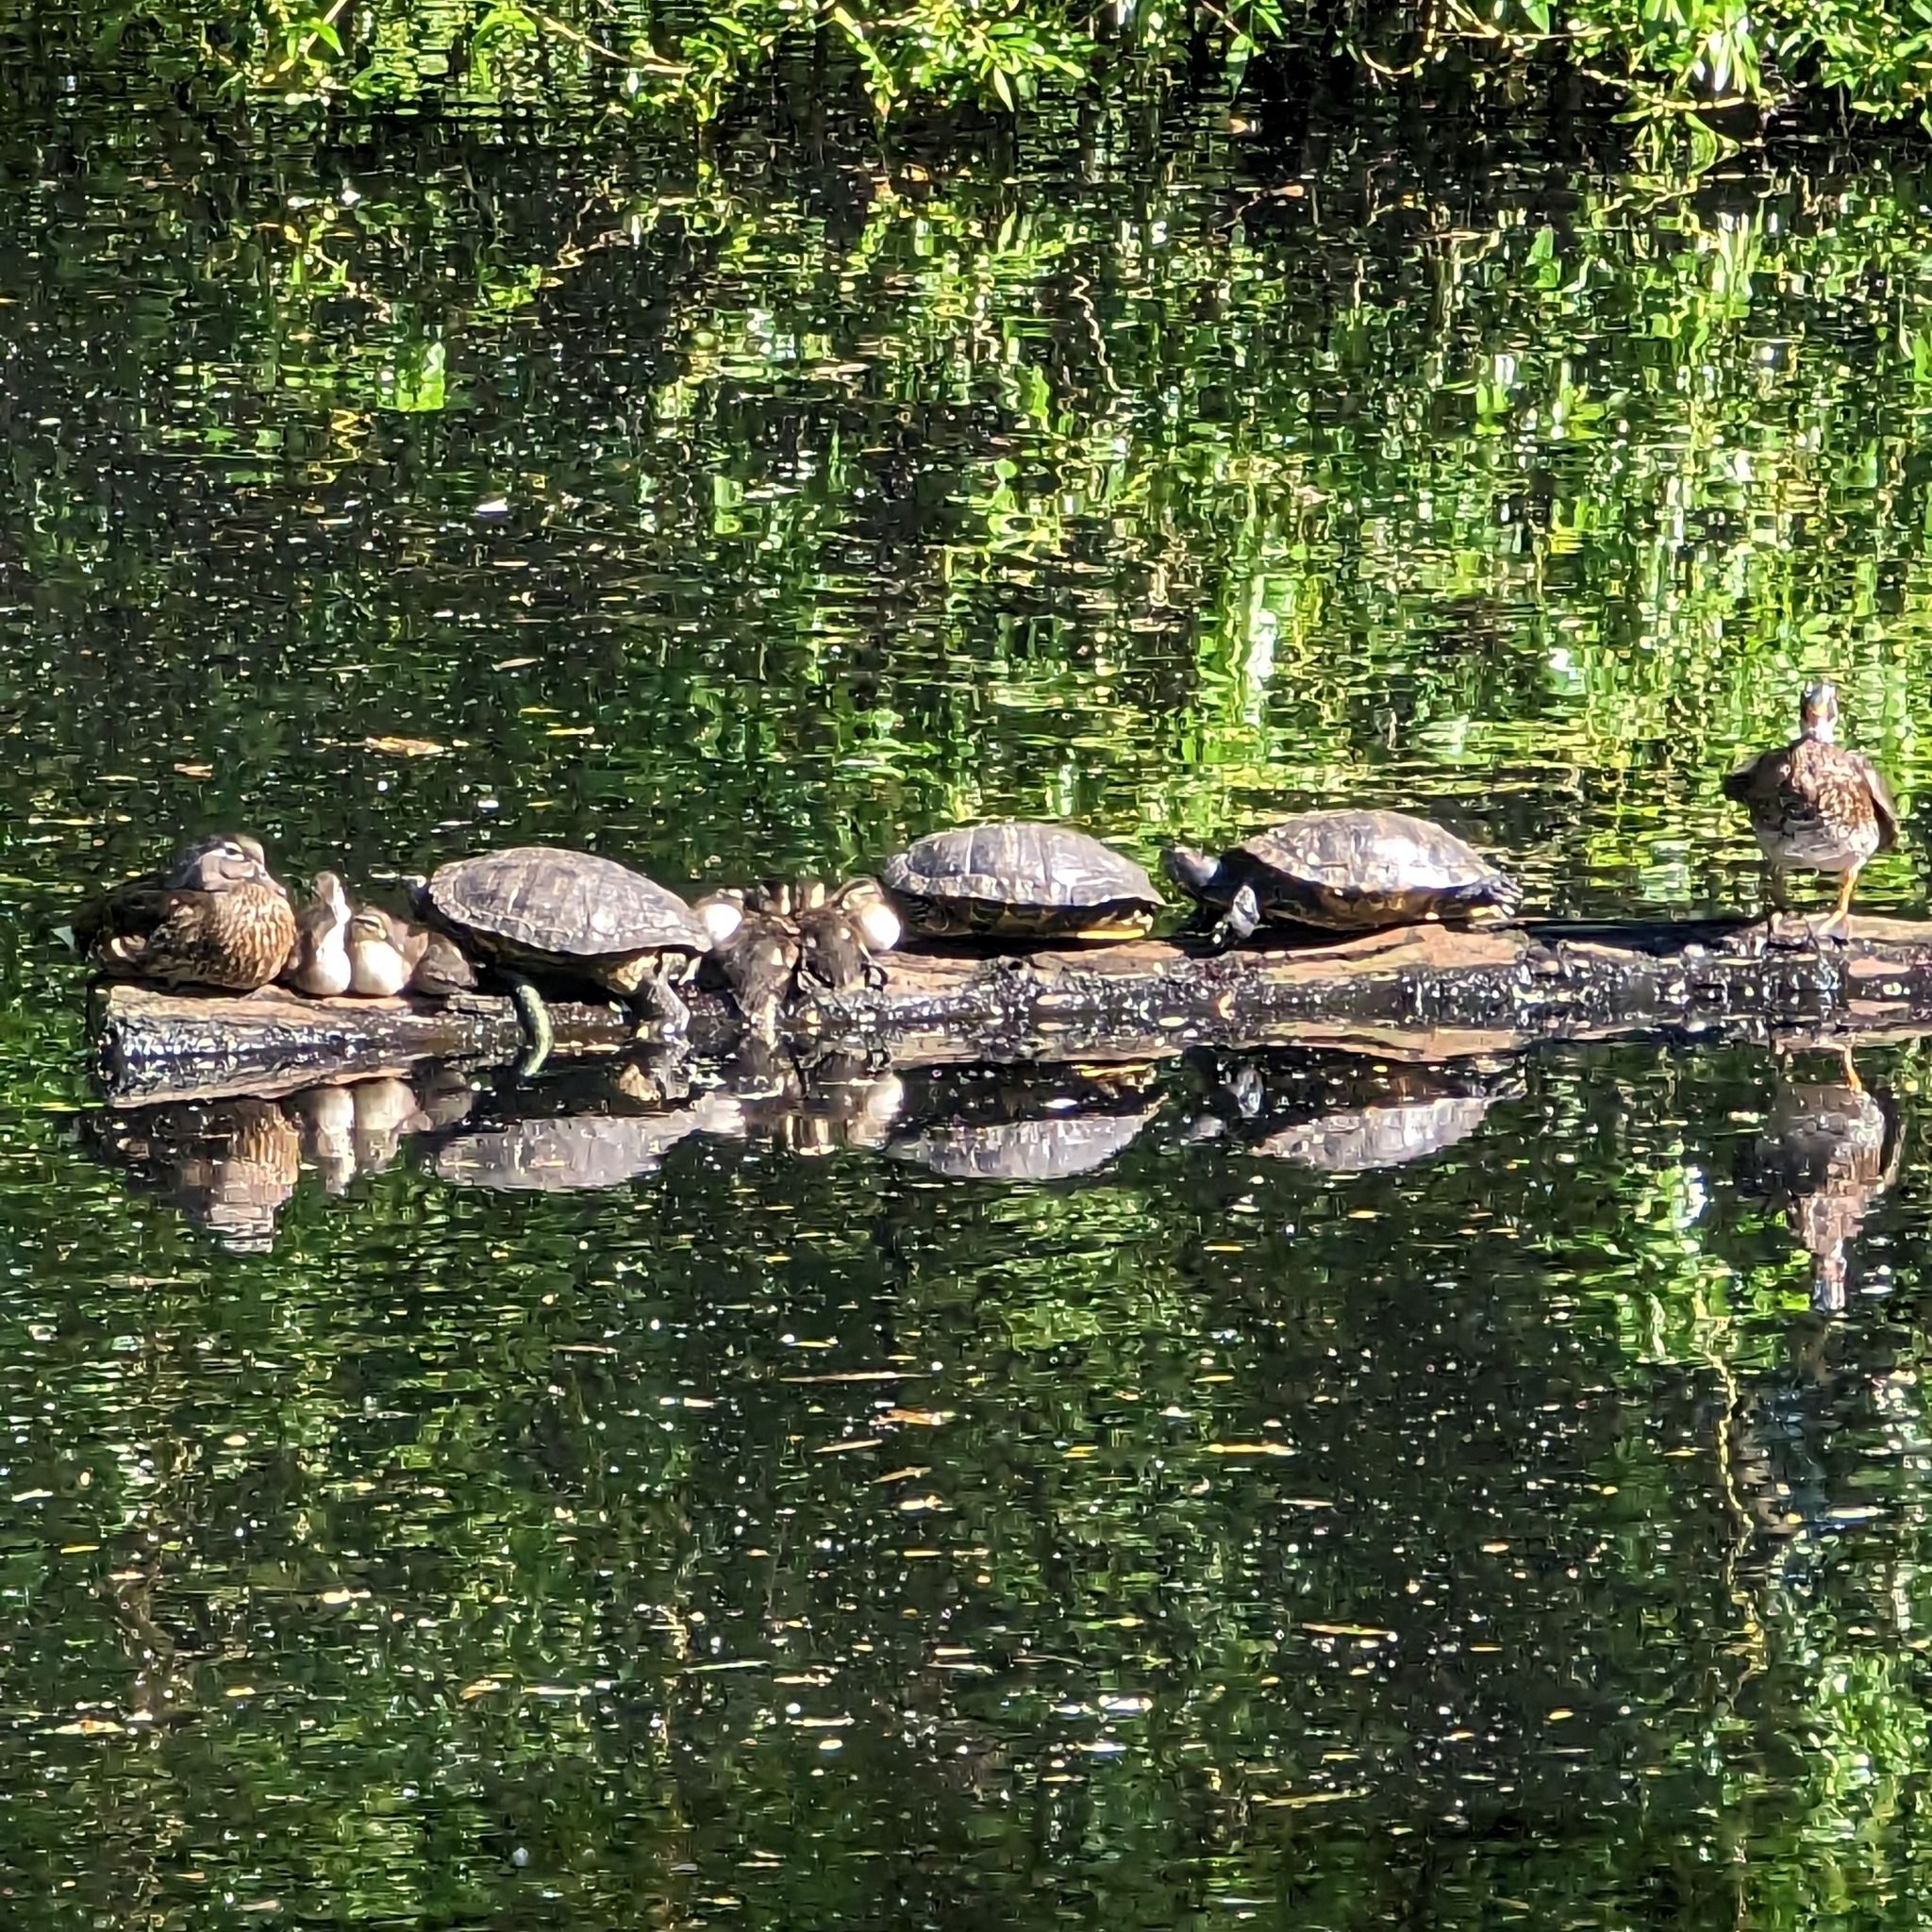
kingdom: Animalia
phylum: Chordata
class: Testudines
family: Emydidae
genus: Trachemys
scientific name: Trachemys scripta
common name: Slider
